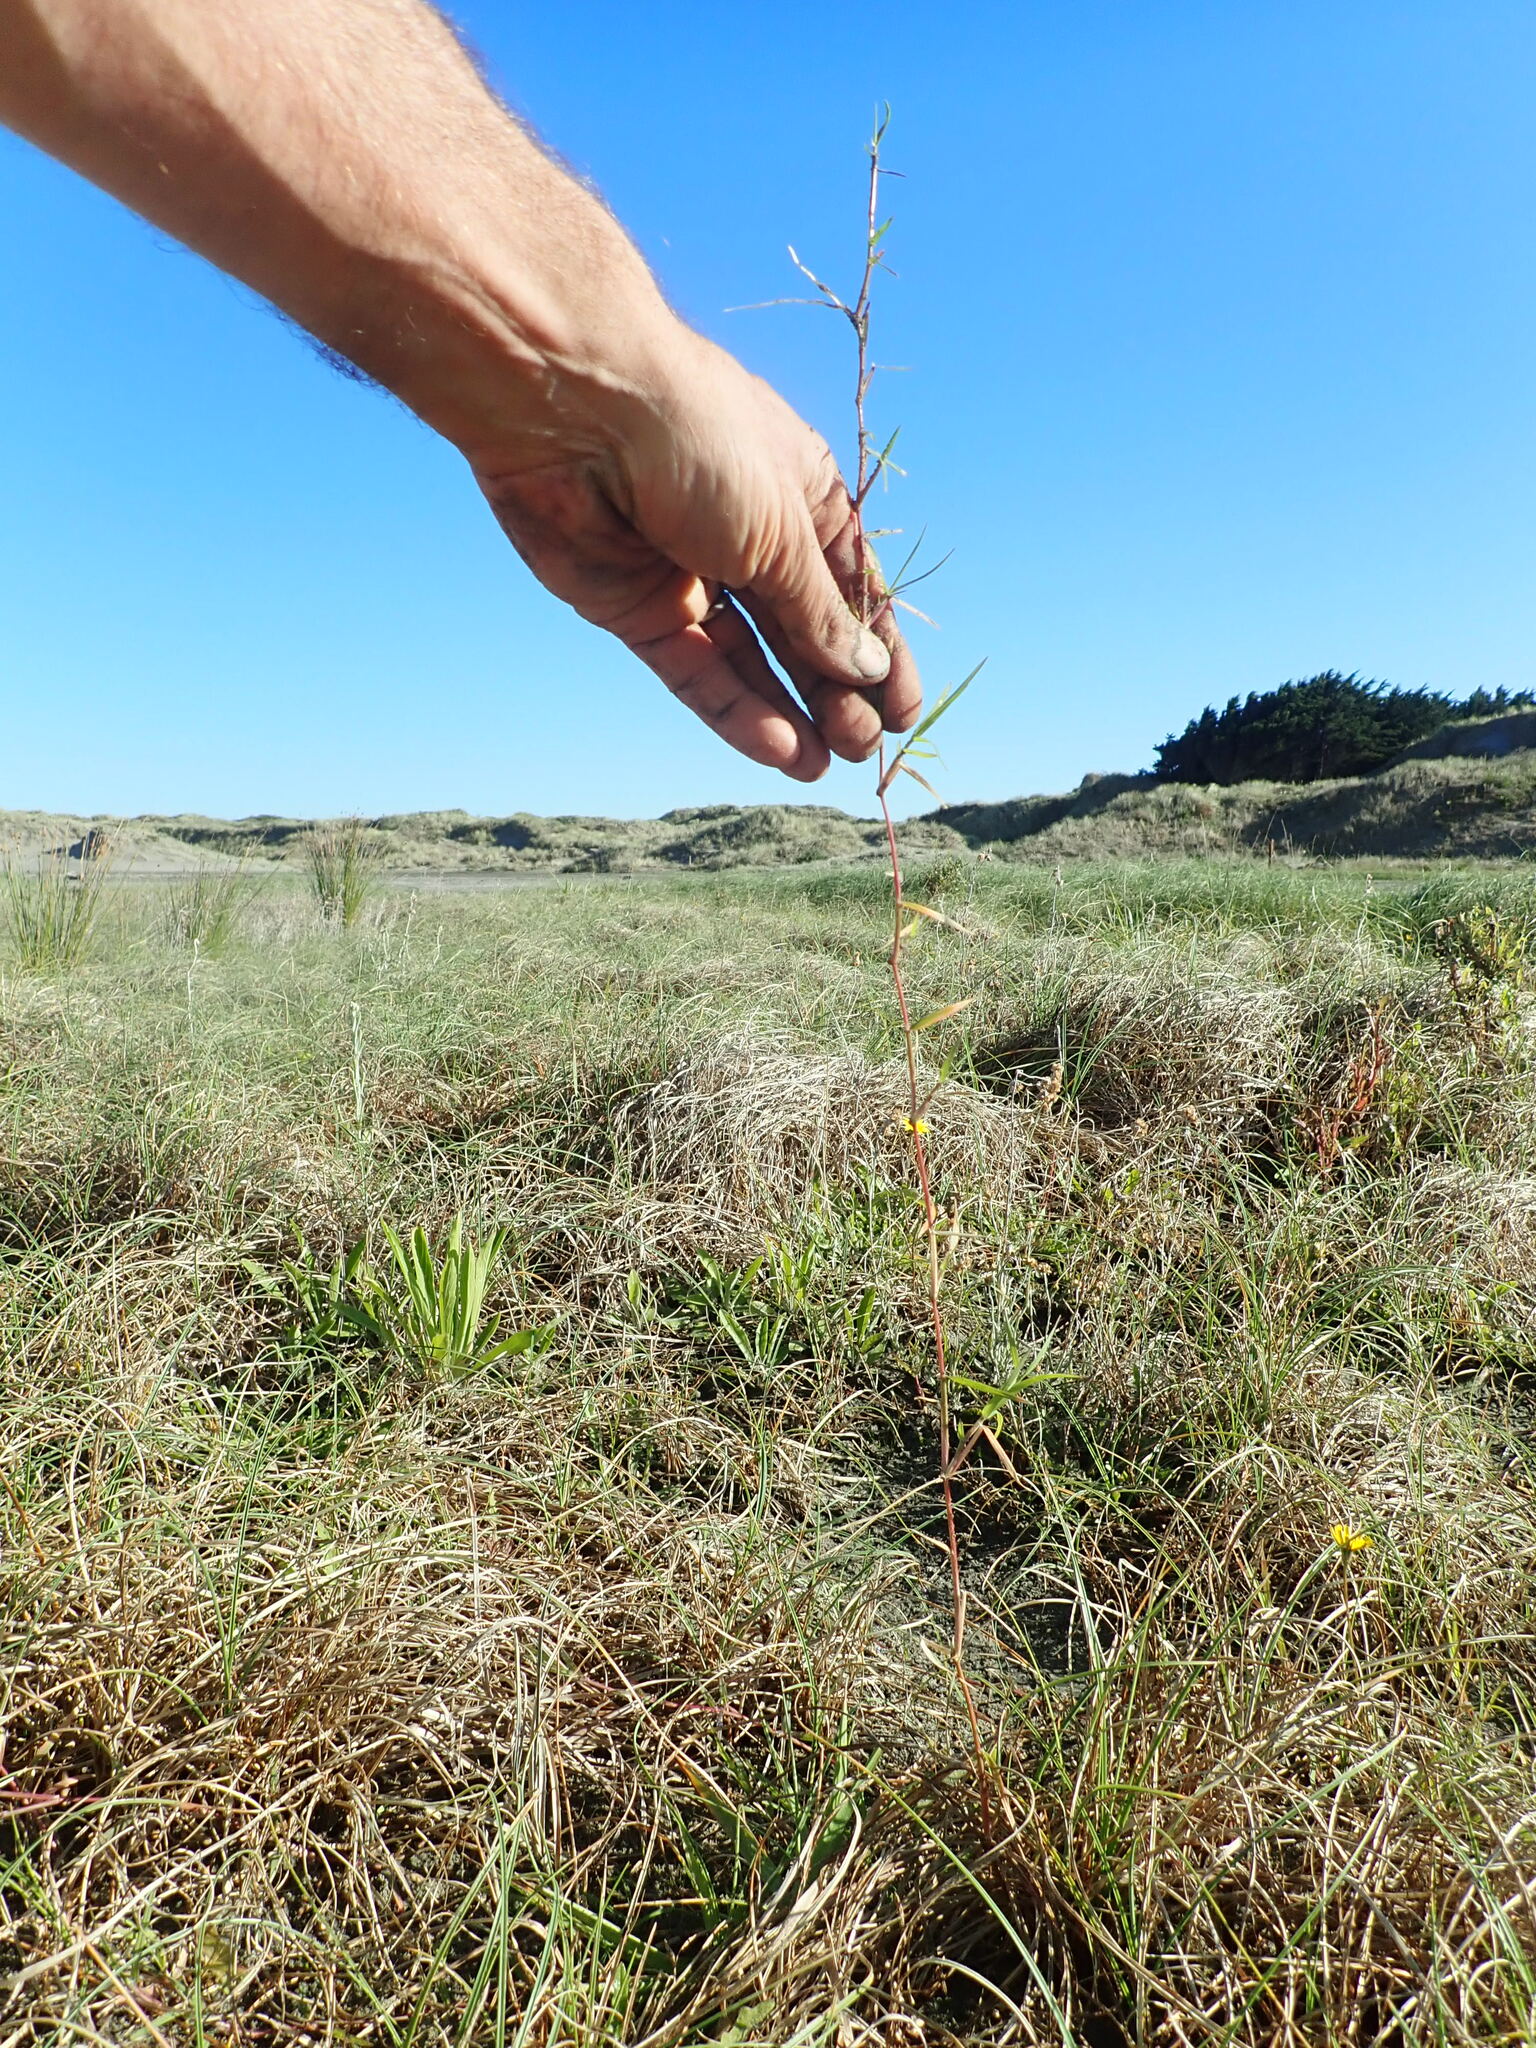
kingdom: Plantae
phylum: Tracheophyta
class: Liliopsida
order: Poales
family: Poaceae
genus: Stenotaphrum
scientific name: Stenotaphrum secundatum
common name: St. augustine grass
